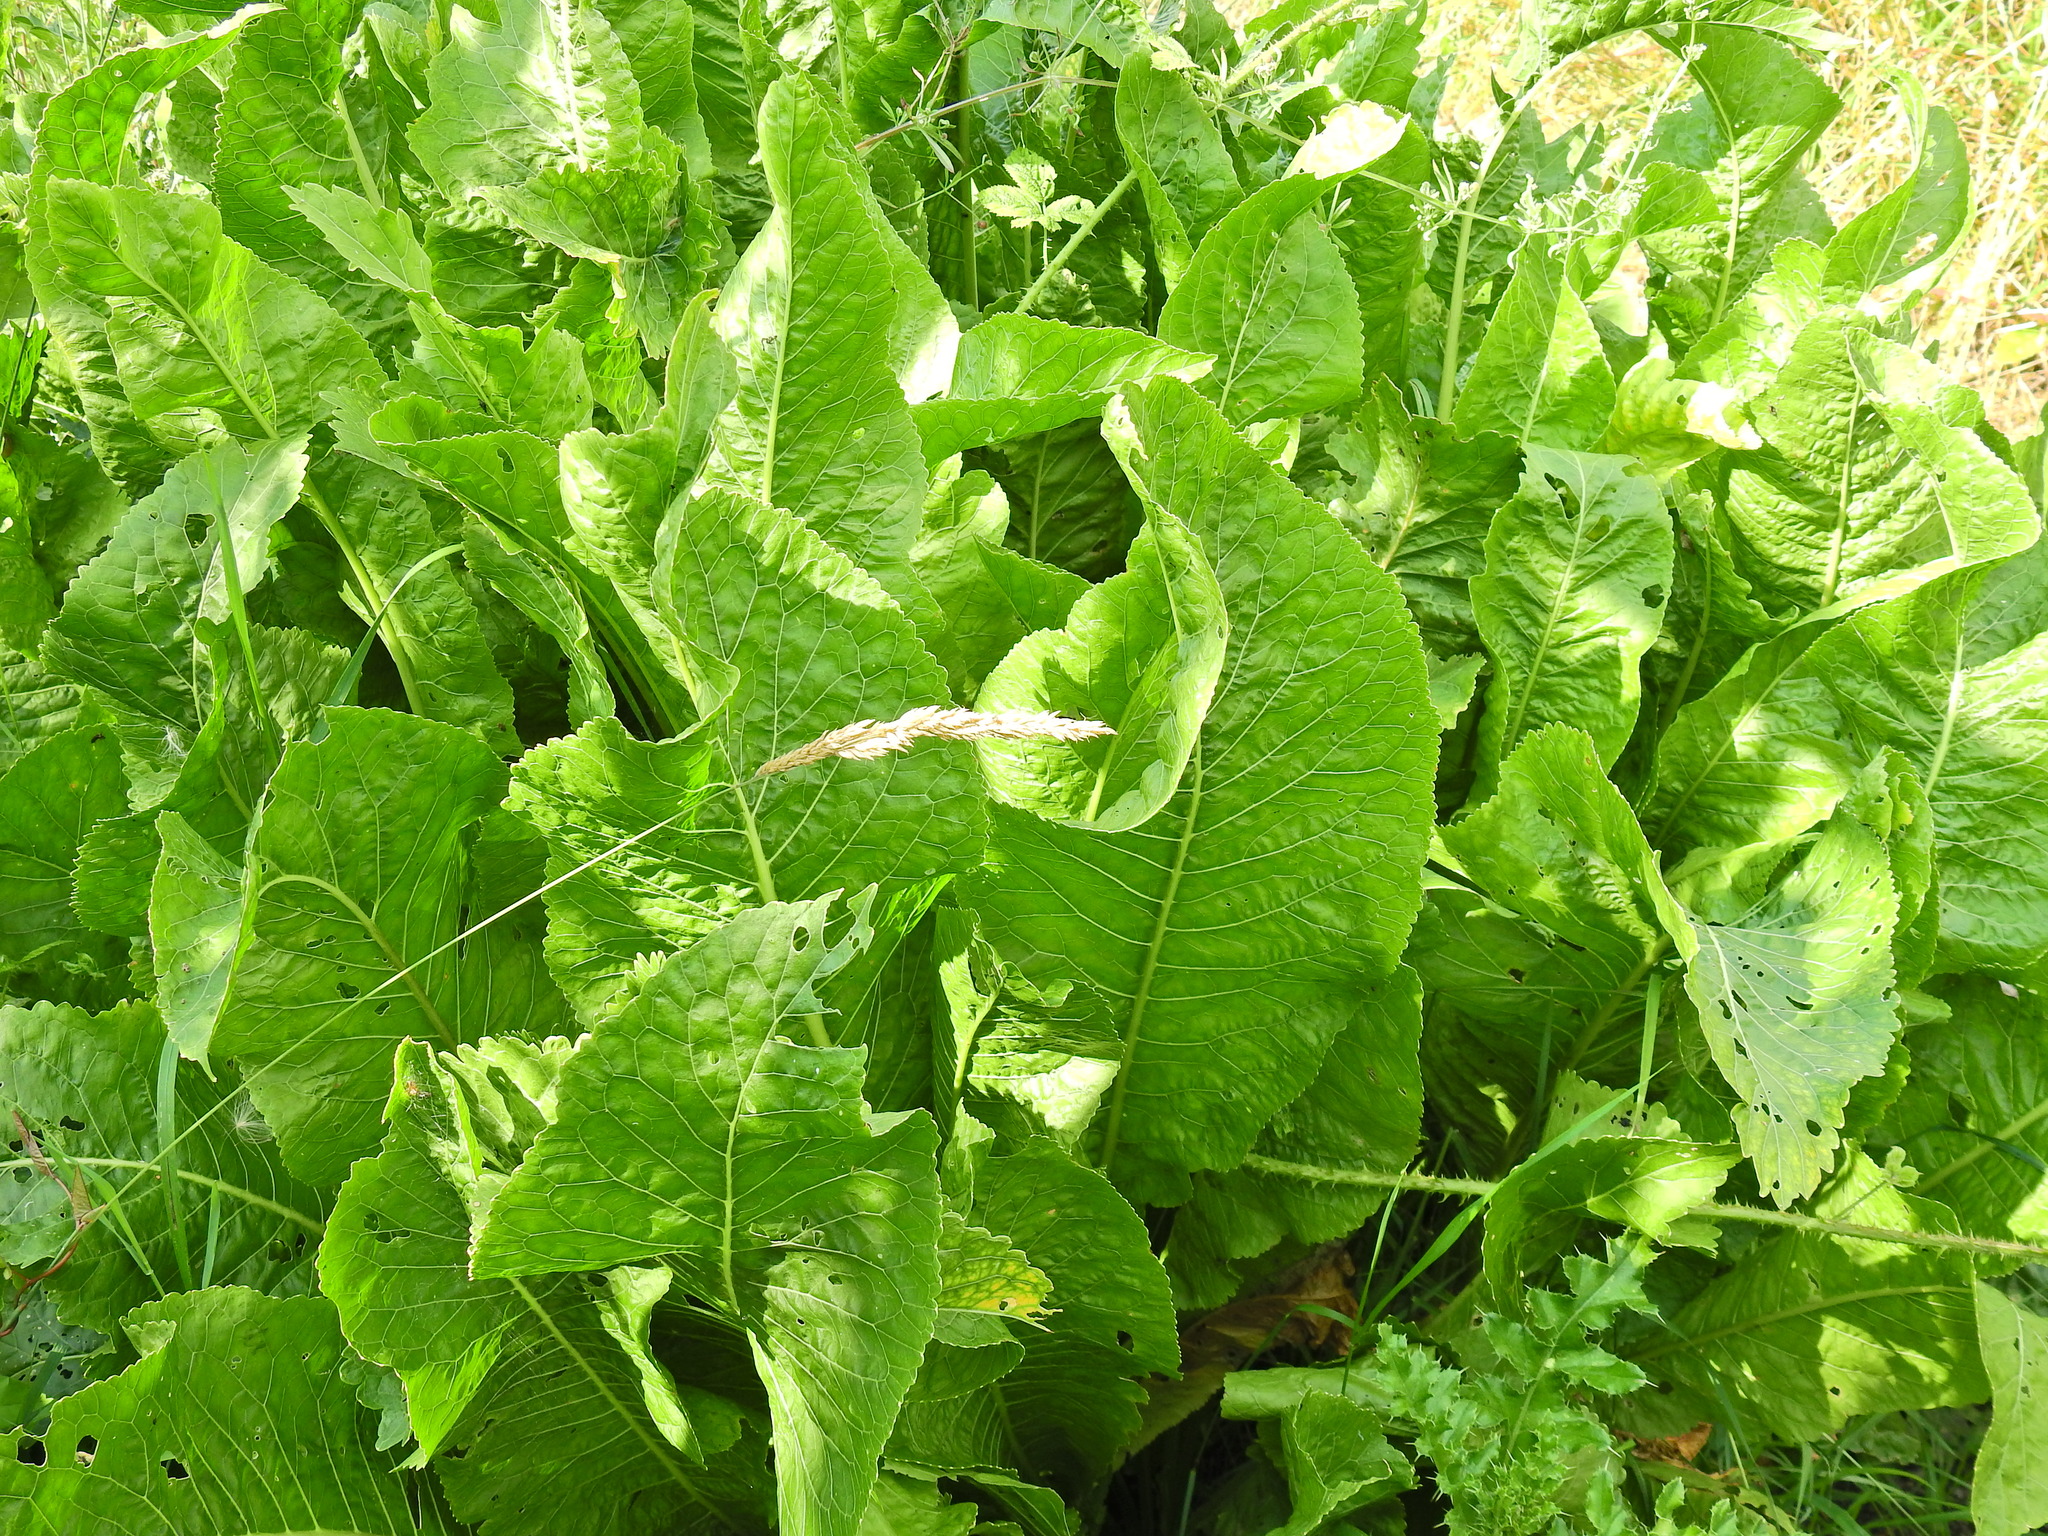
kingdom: Plantae
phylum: Tracheophyta
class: Magnoliopsida
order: Brassicales
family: Brassicaceae
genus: Armoracia
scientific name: Armoracia rusticana
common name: Horseradish
